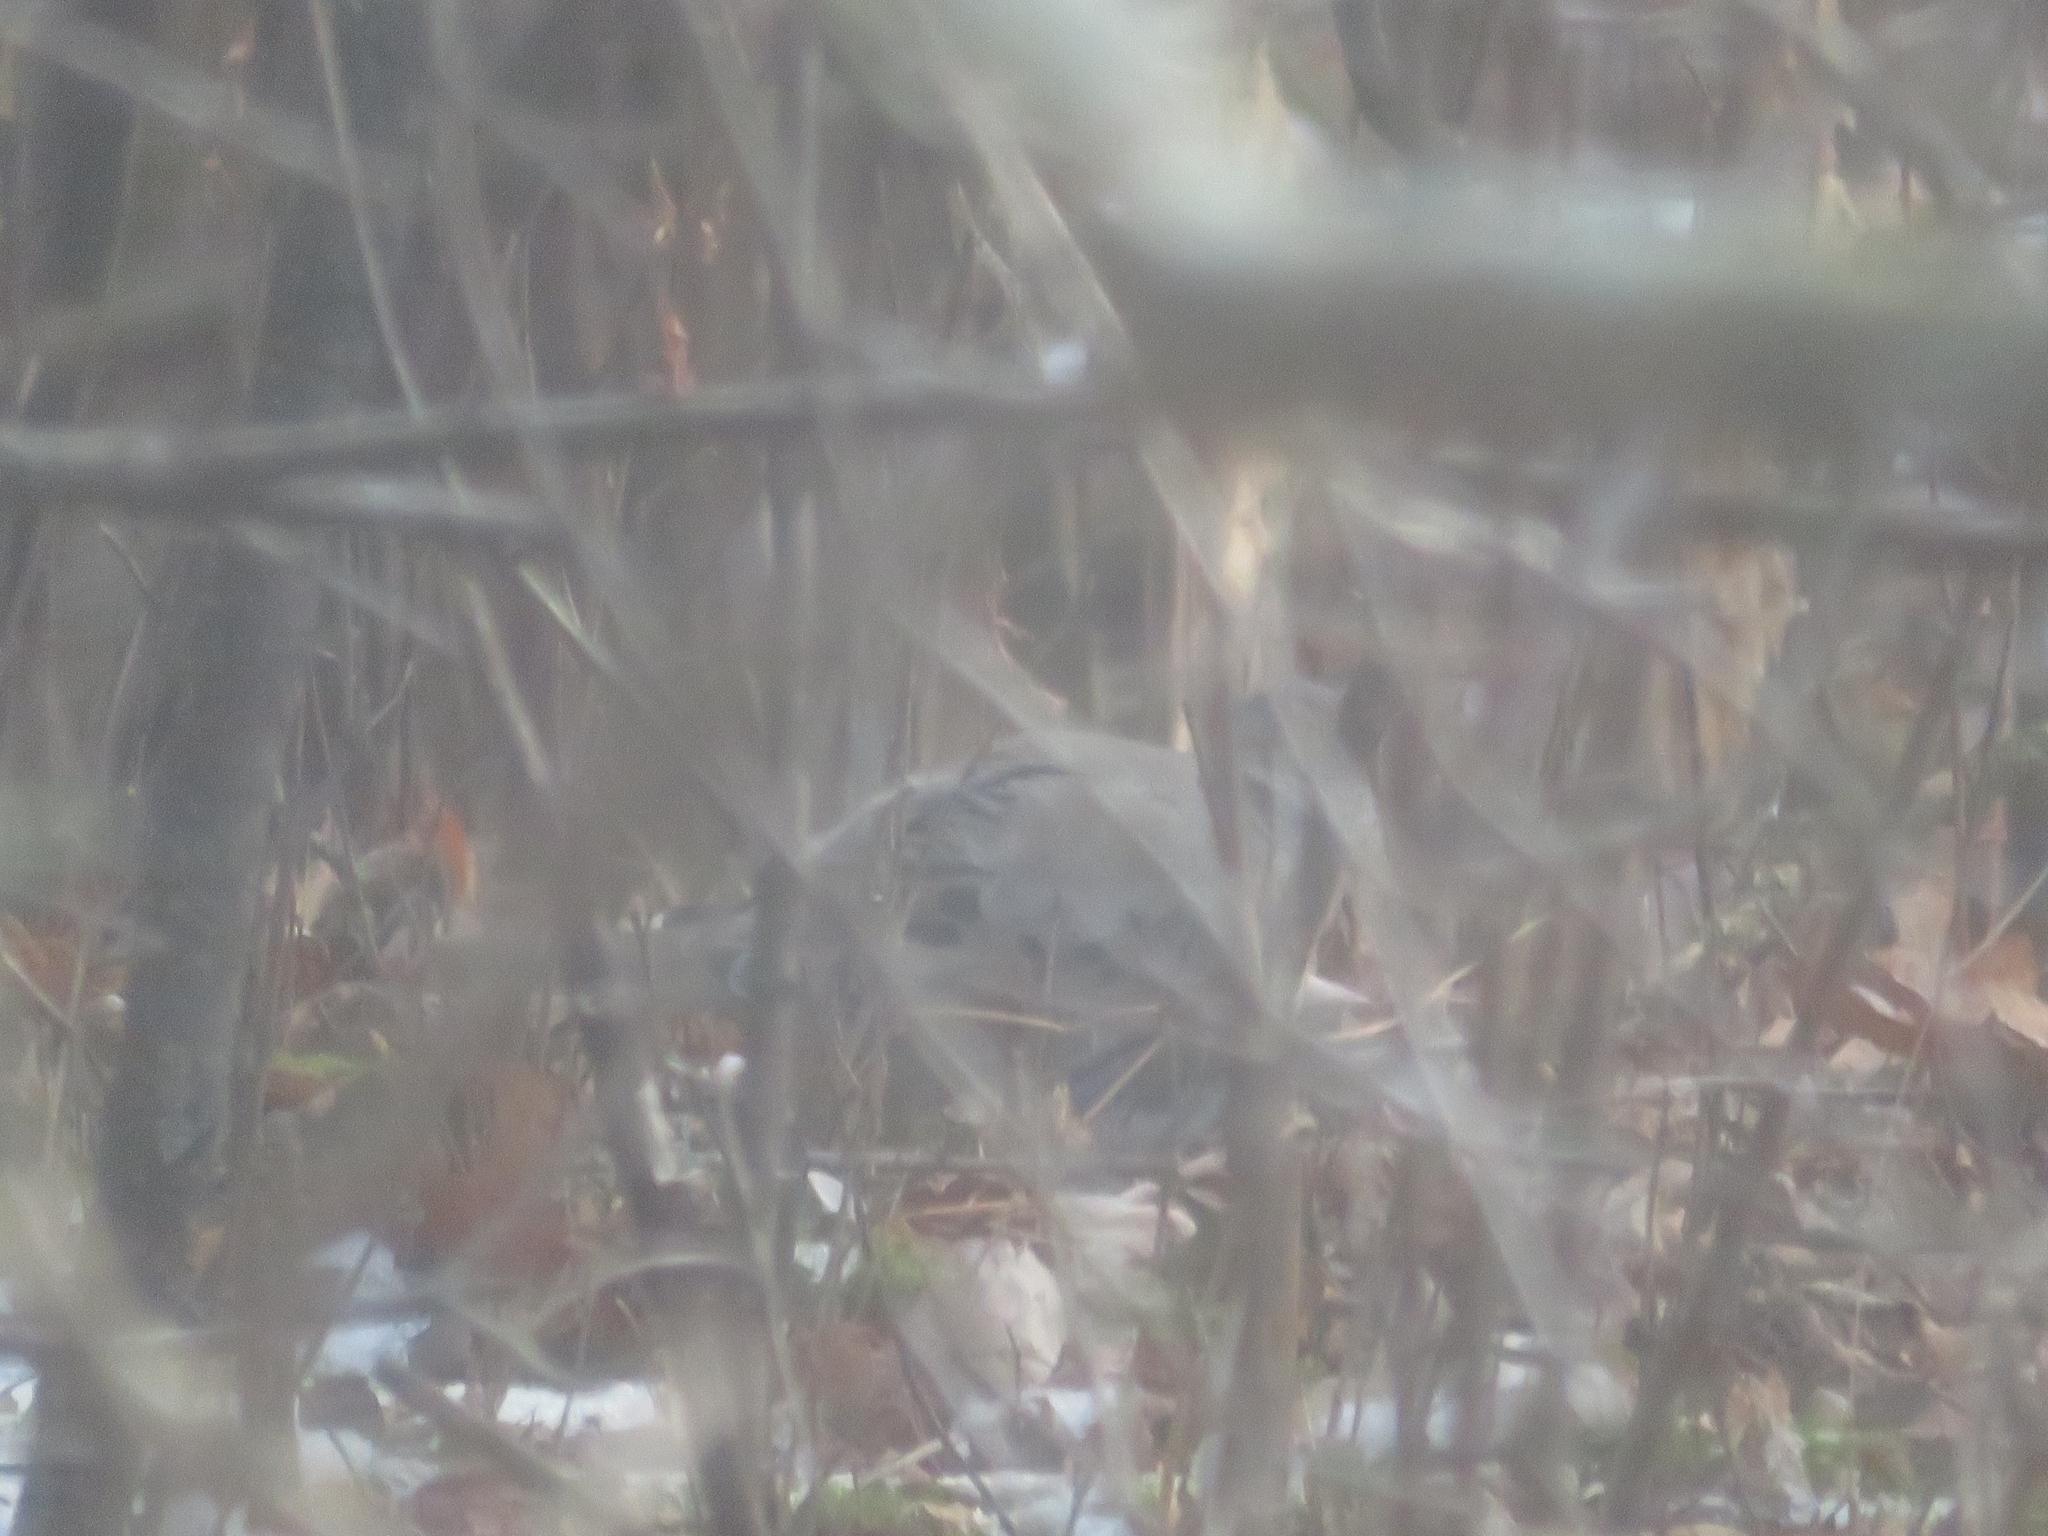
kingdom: Animalia
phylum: Chordata
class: Aves
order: Columbiformes
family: Columbidae
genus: Zenaida
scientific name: Zenaida macroura
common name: Mourning dove
